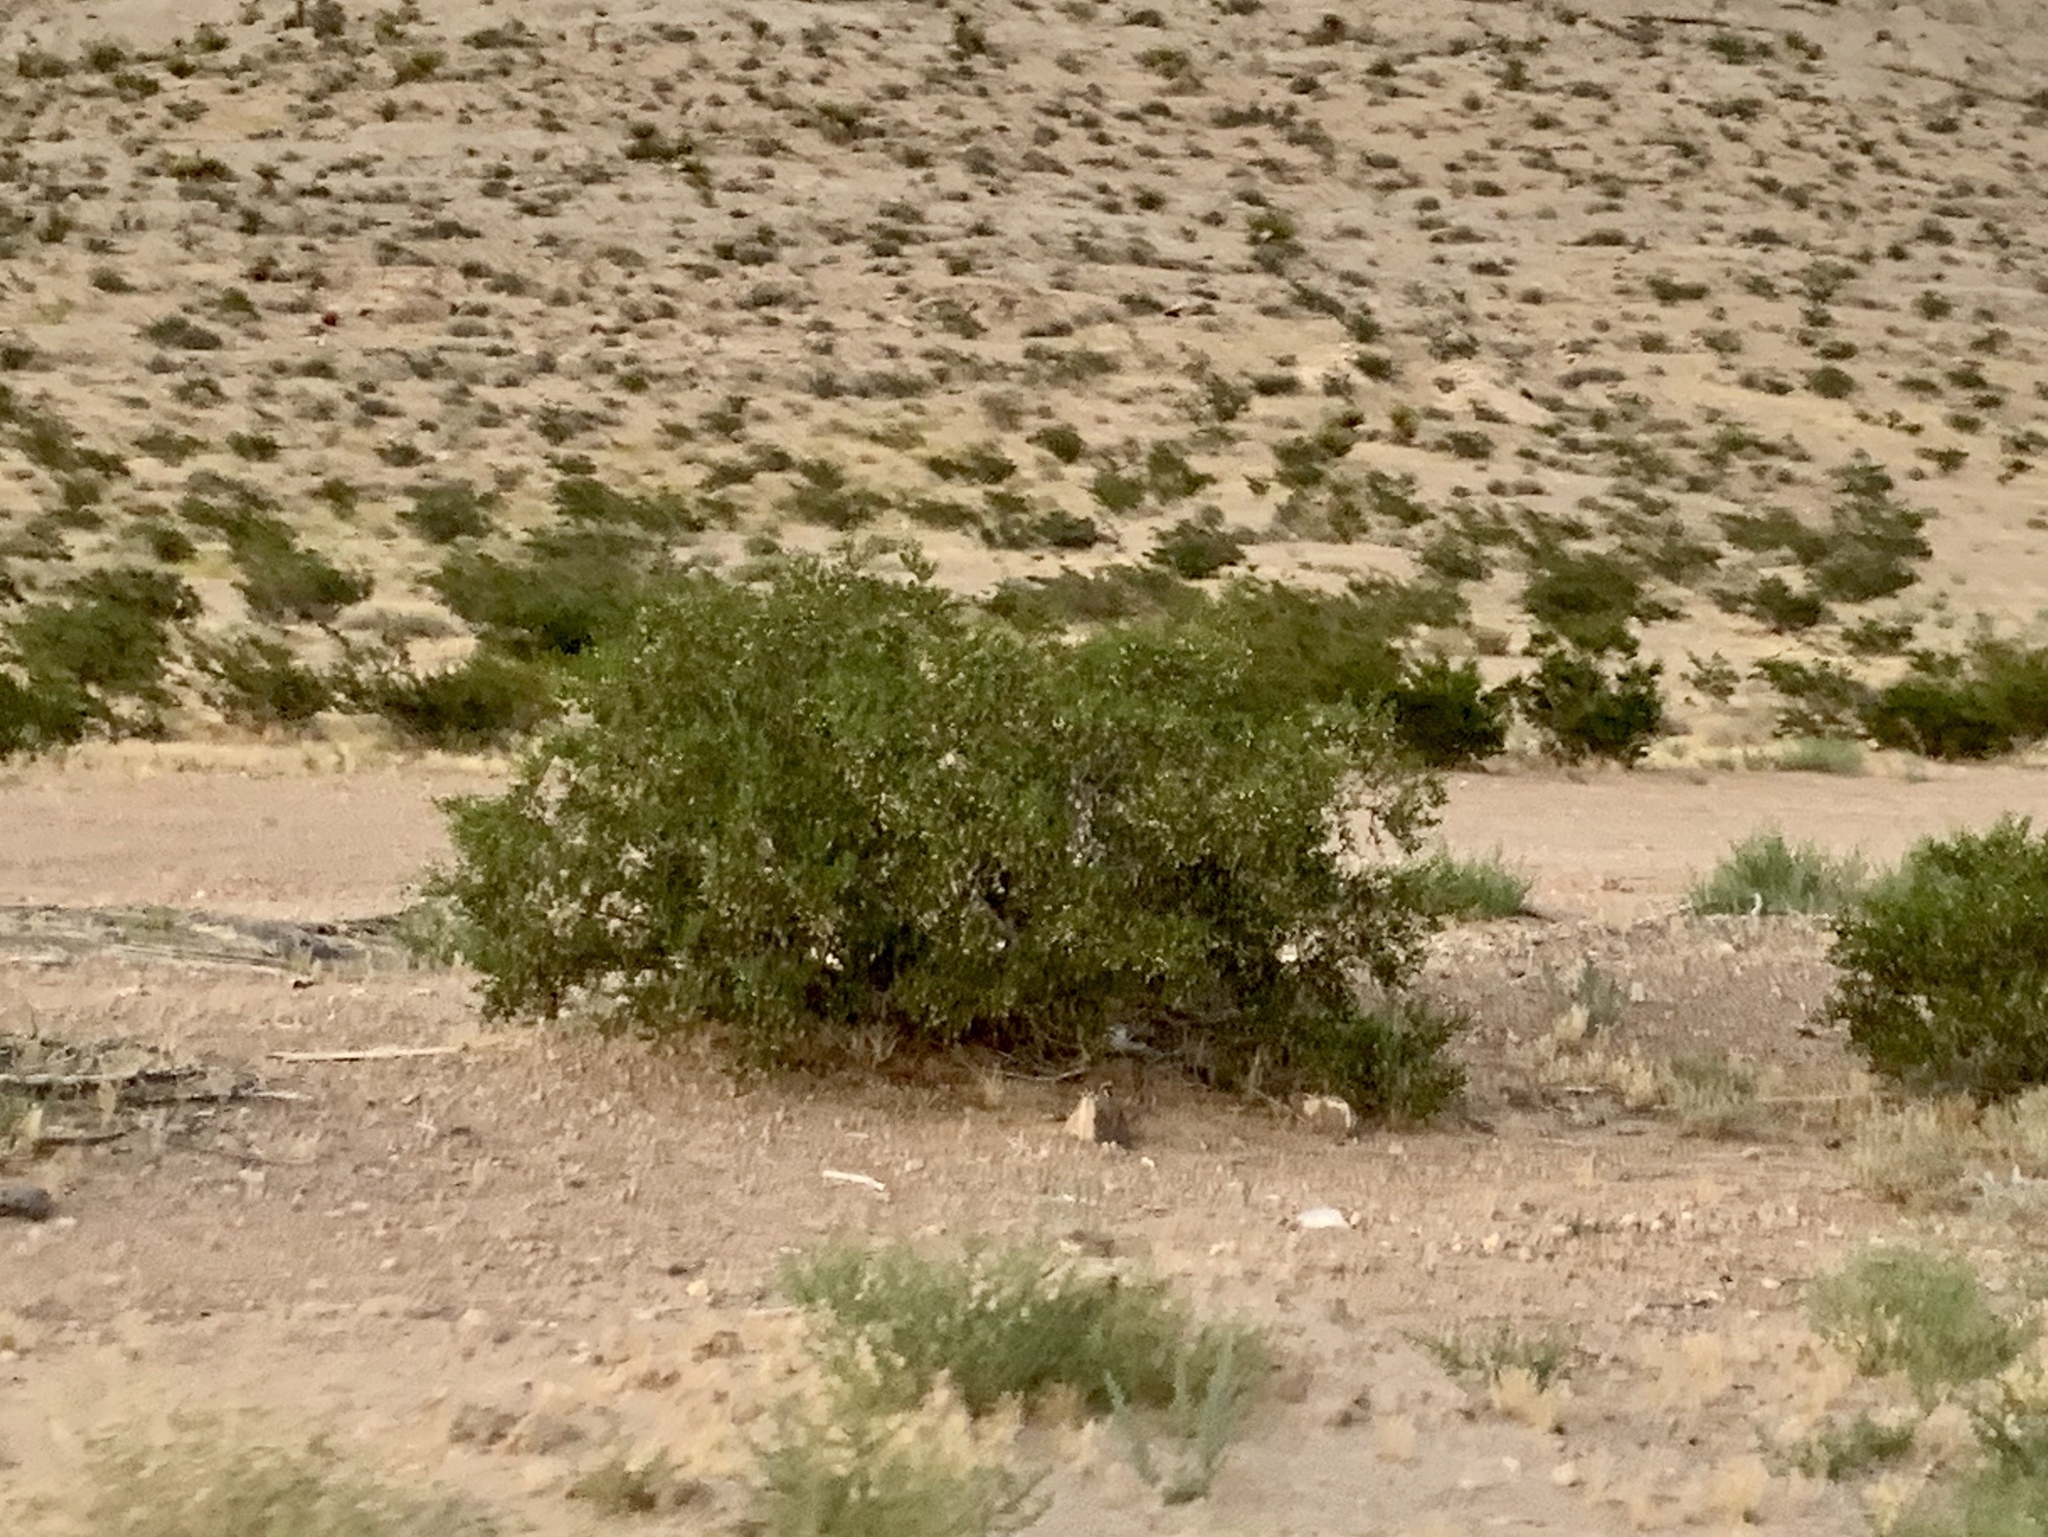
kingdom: Plantae
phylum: Tracheophyta
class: Magnoliopsida
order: Zygophyllales
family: Zygophyllaceae
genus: Larrea
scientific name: Larrea tridentata
